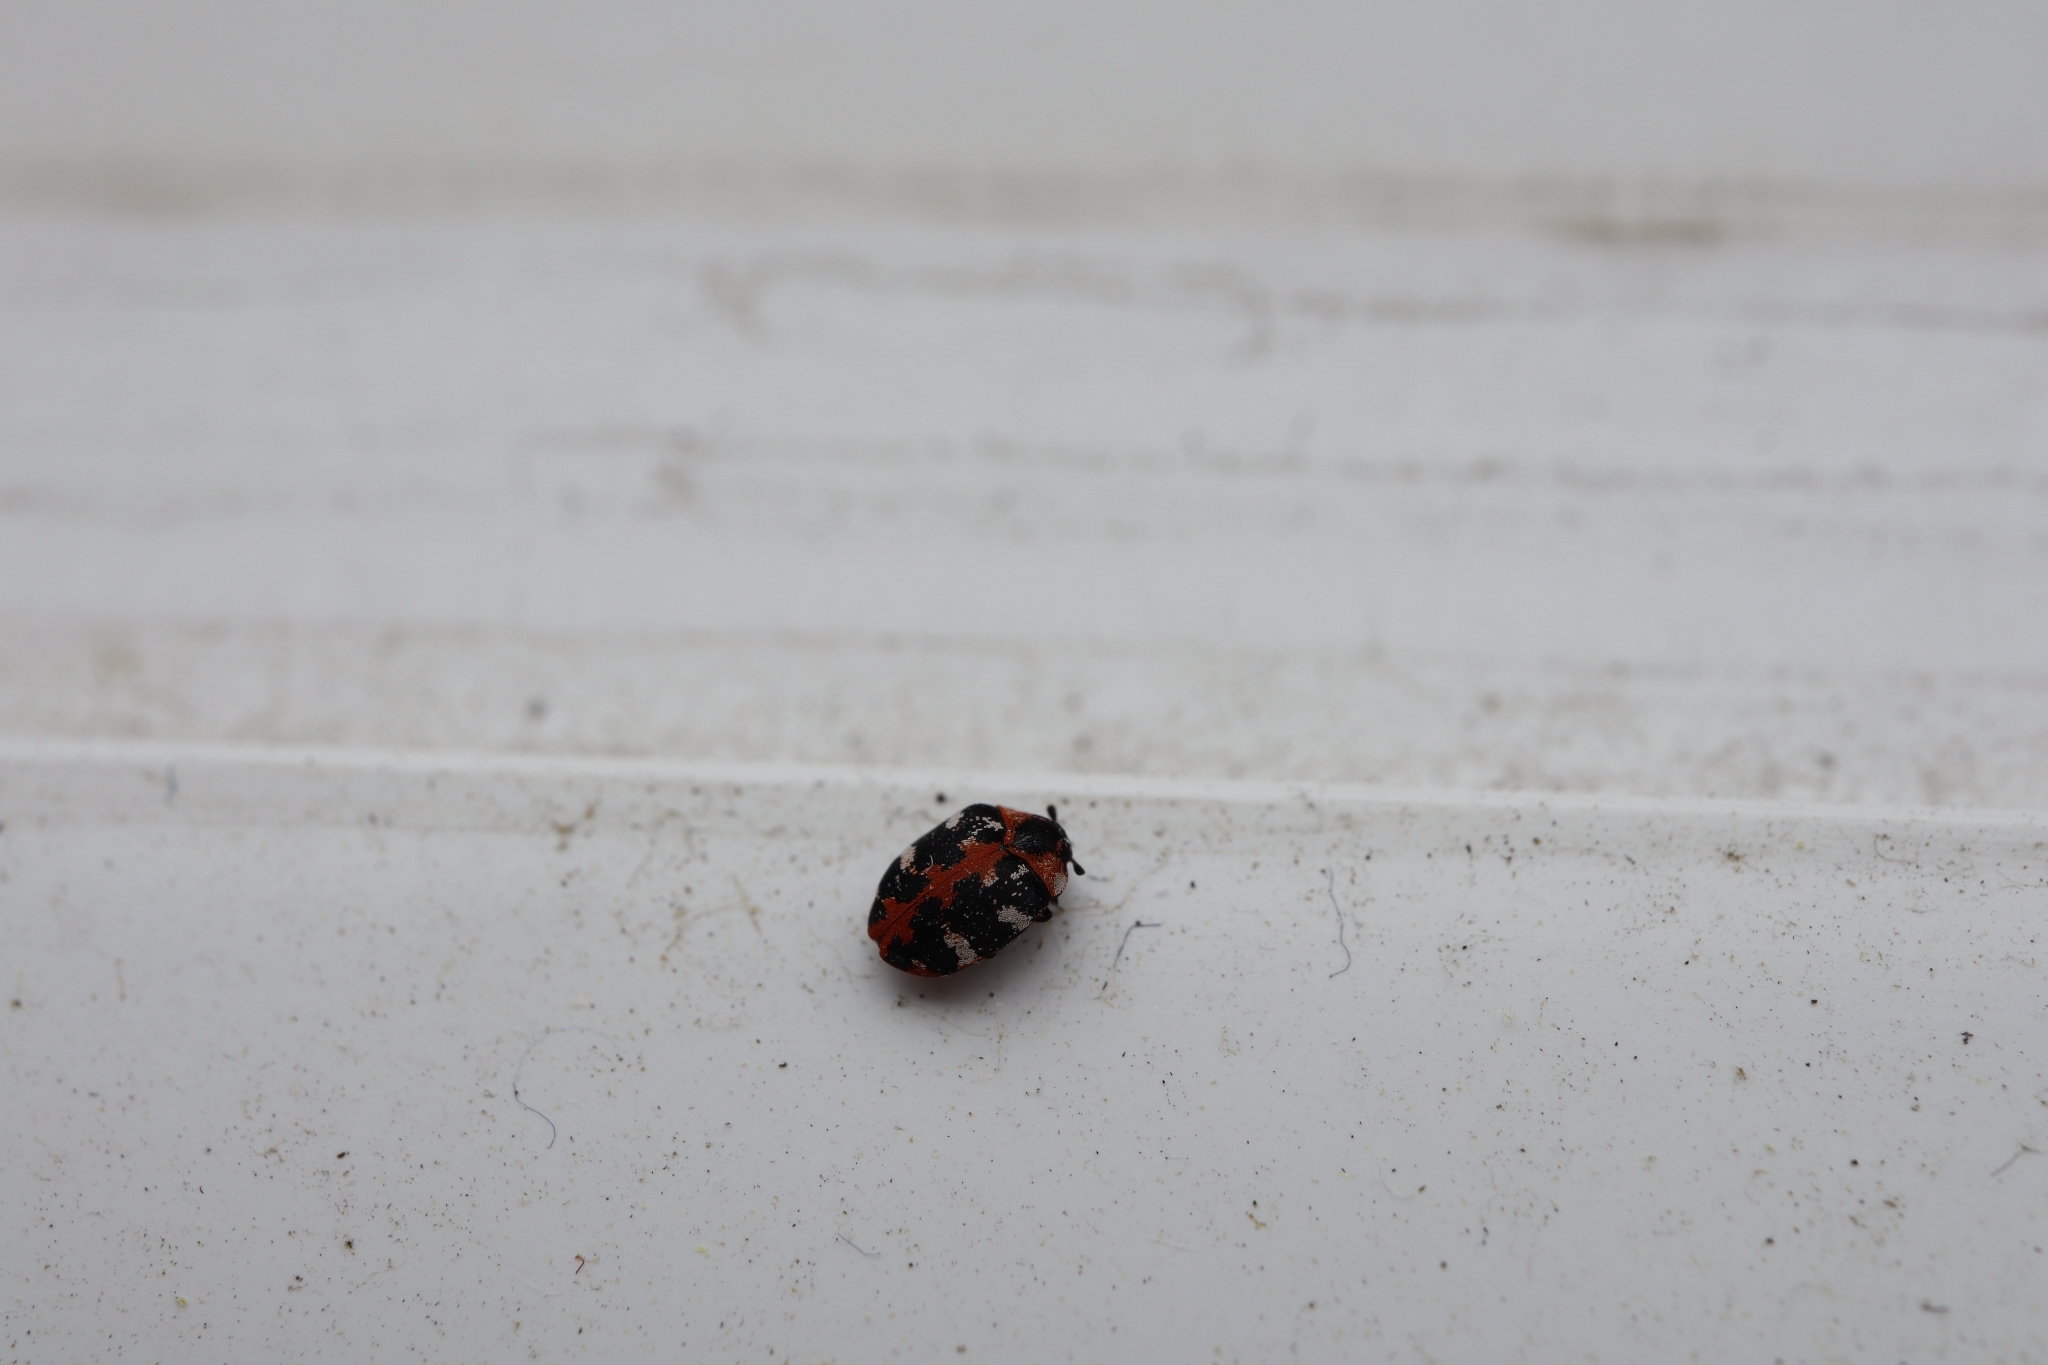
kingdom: Animalia
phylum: Arthropoda
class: Insecta
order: Coleoptera
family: Dermestidae
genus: Anthrenus
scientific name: Anthrenus scrophulariae
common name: Buffalo carpet beetle
